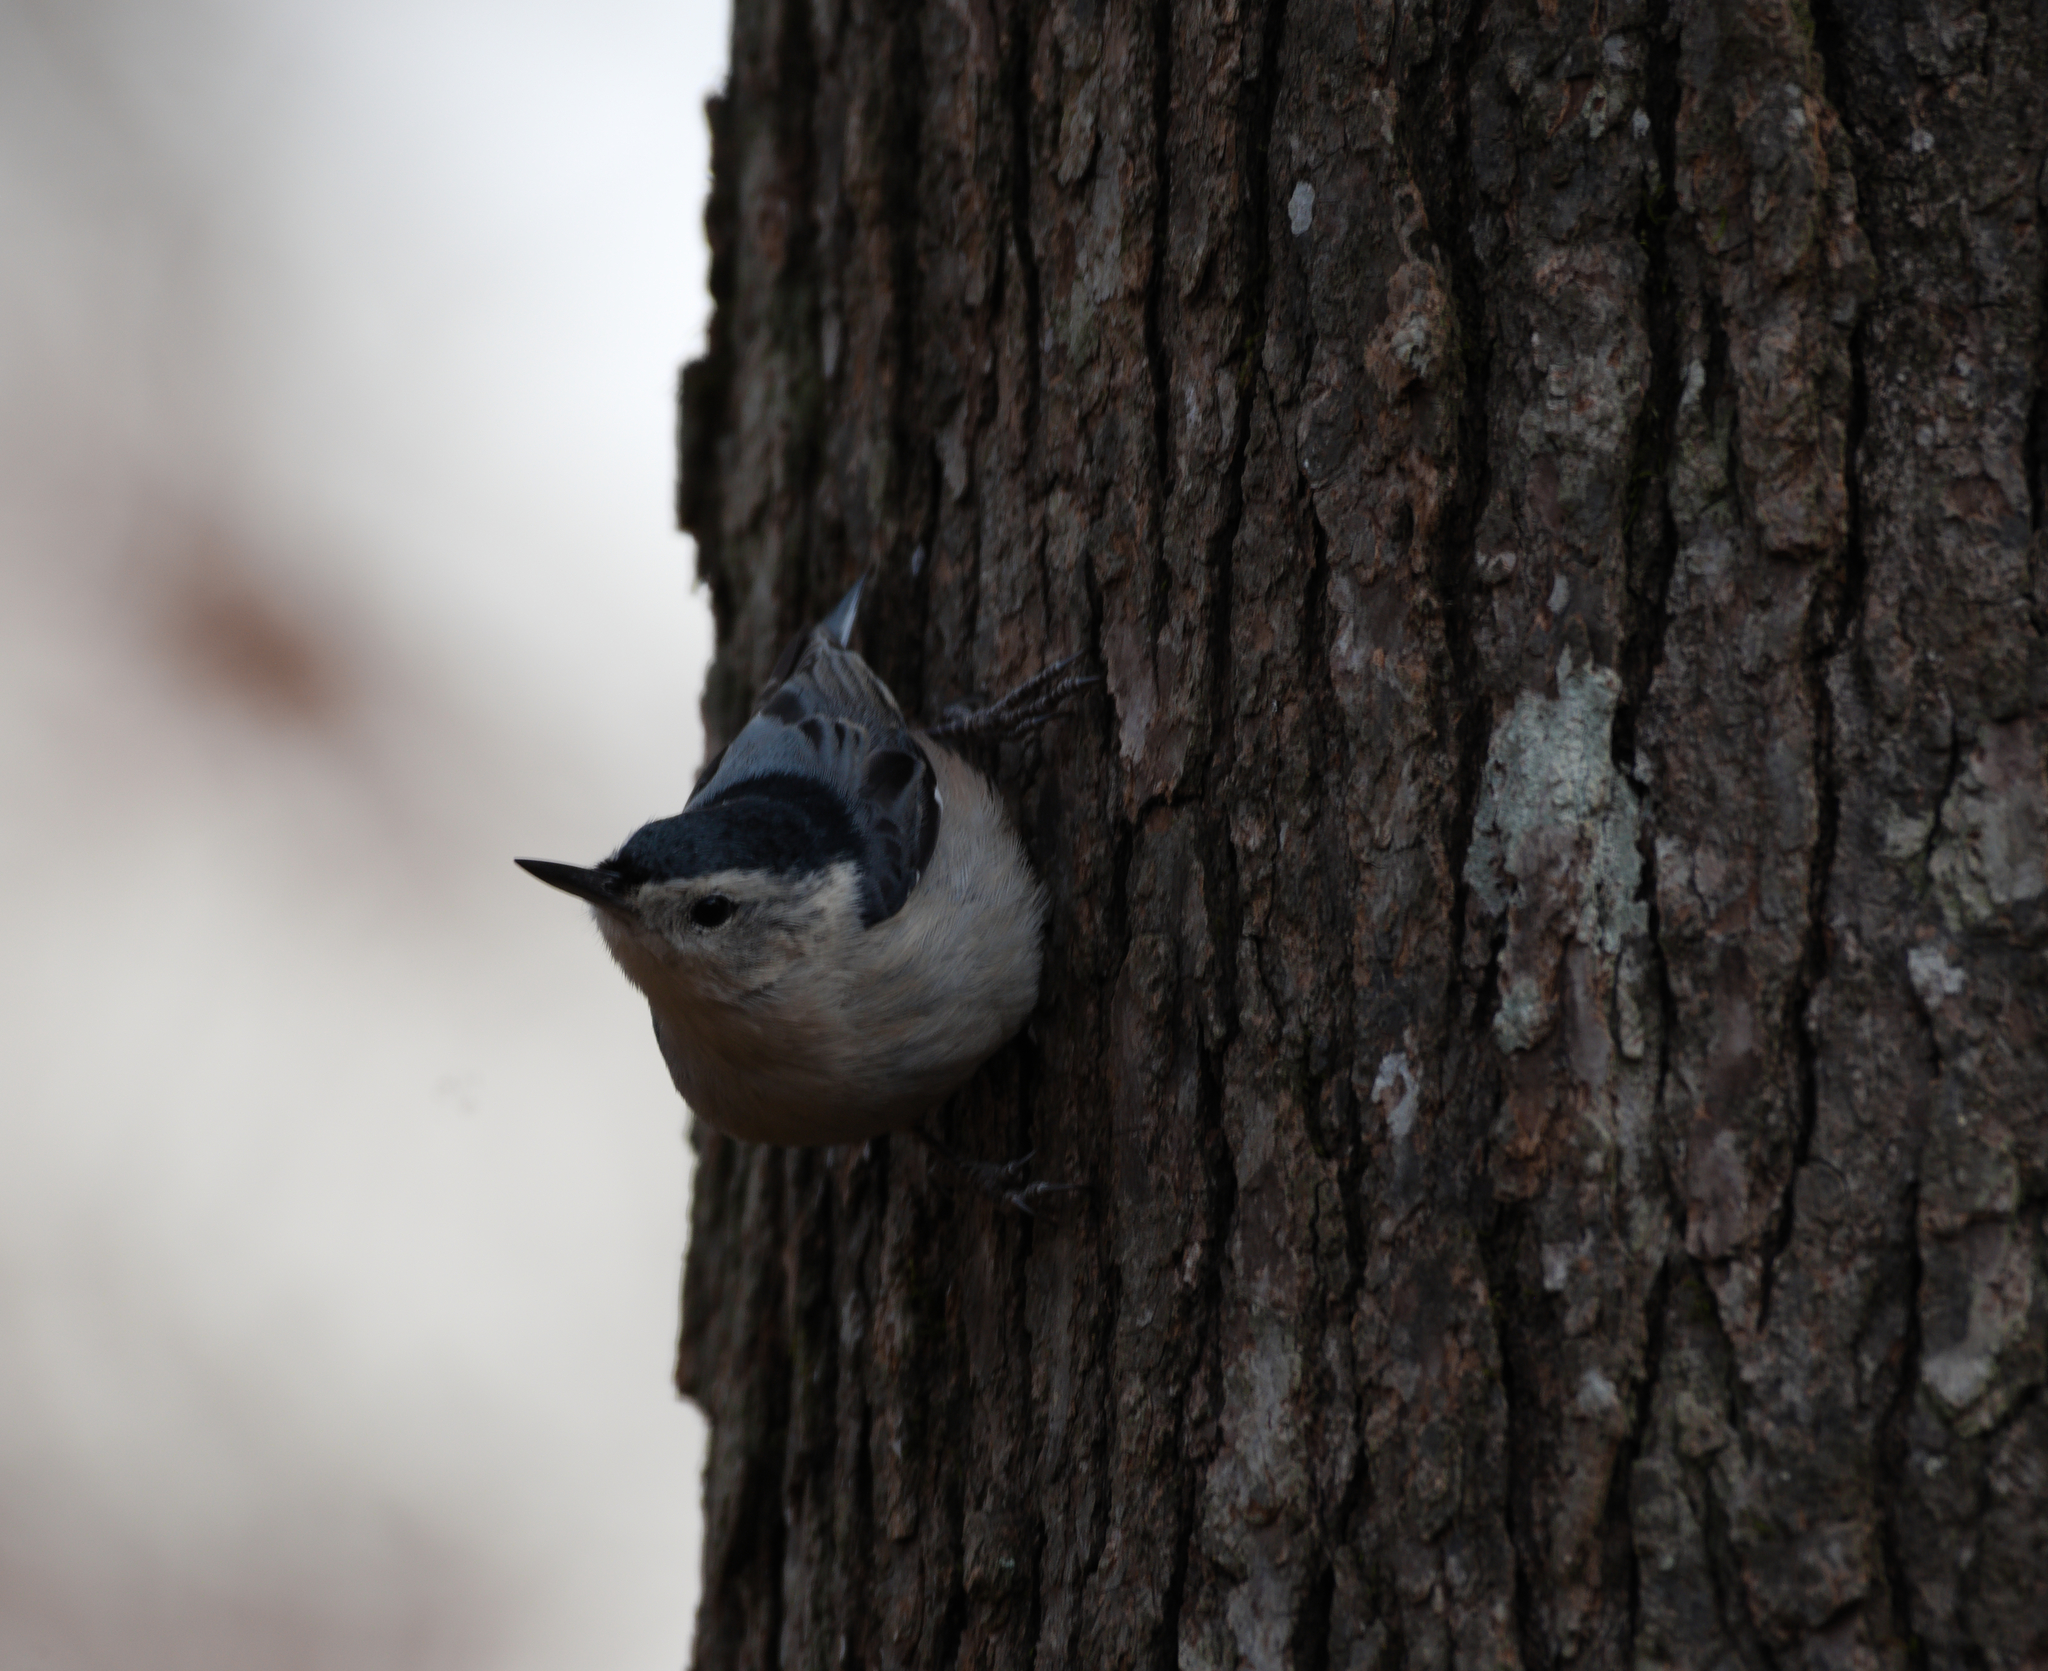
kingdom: Animalia
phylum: Chordata
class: Aves
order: Passeriformes
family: Sittidae
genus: Sitta
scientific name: Sitta carolinensis
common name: White-breasted nuthatch
